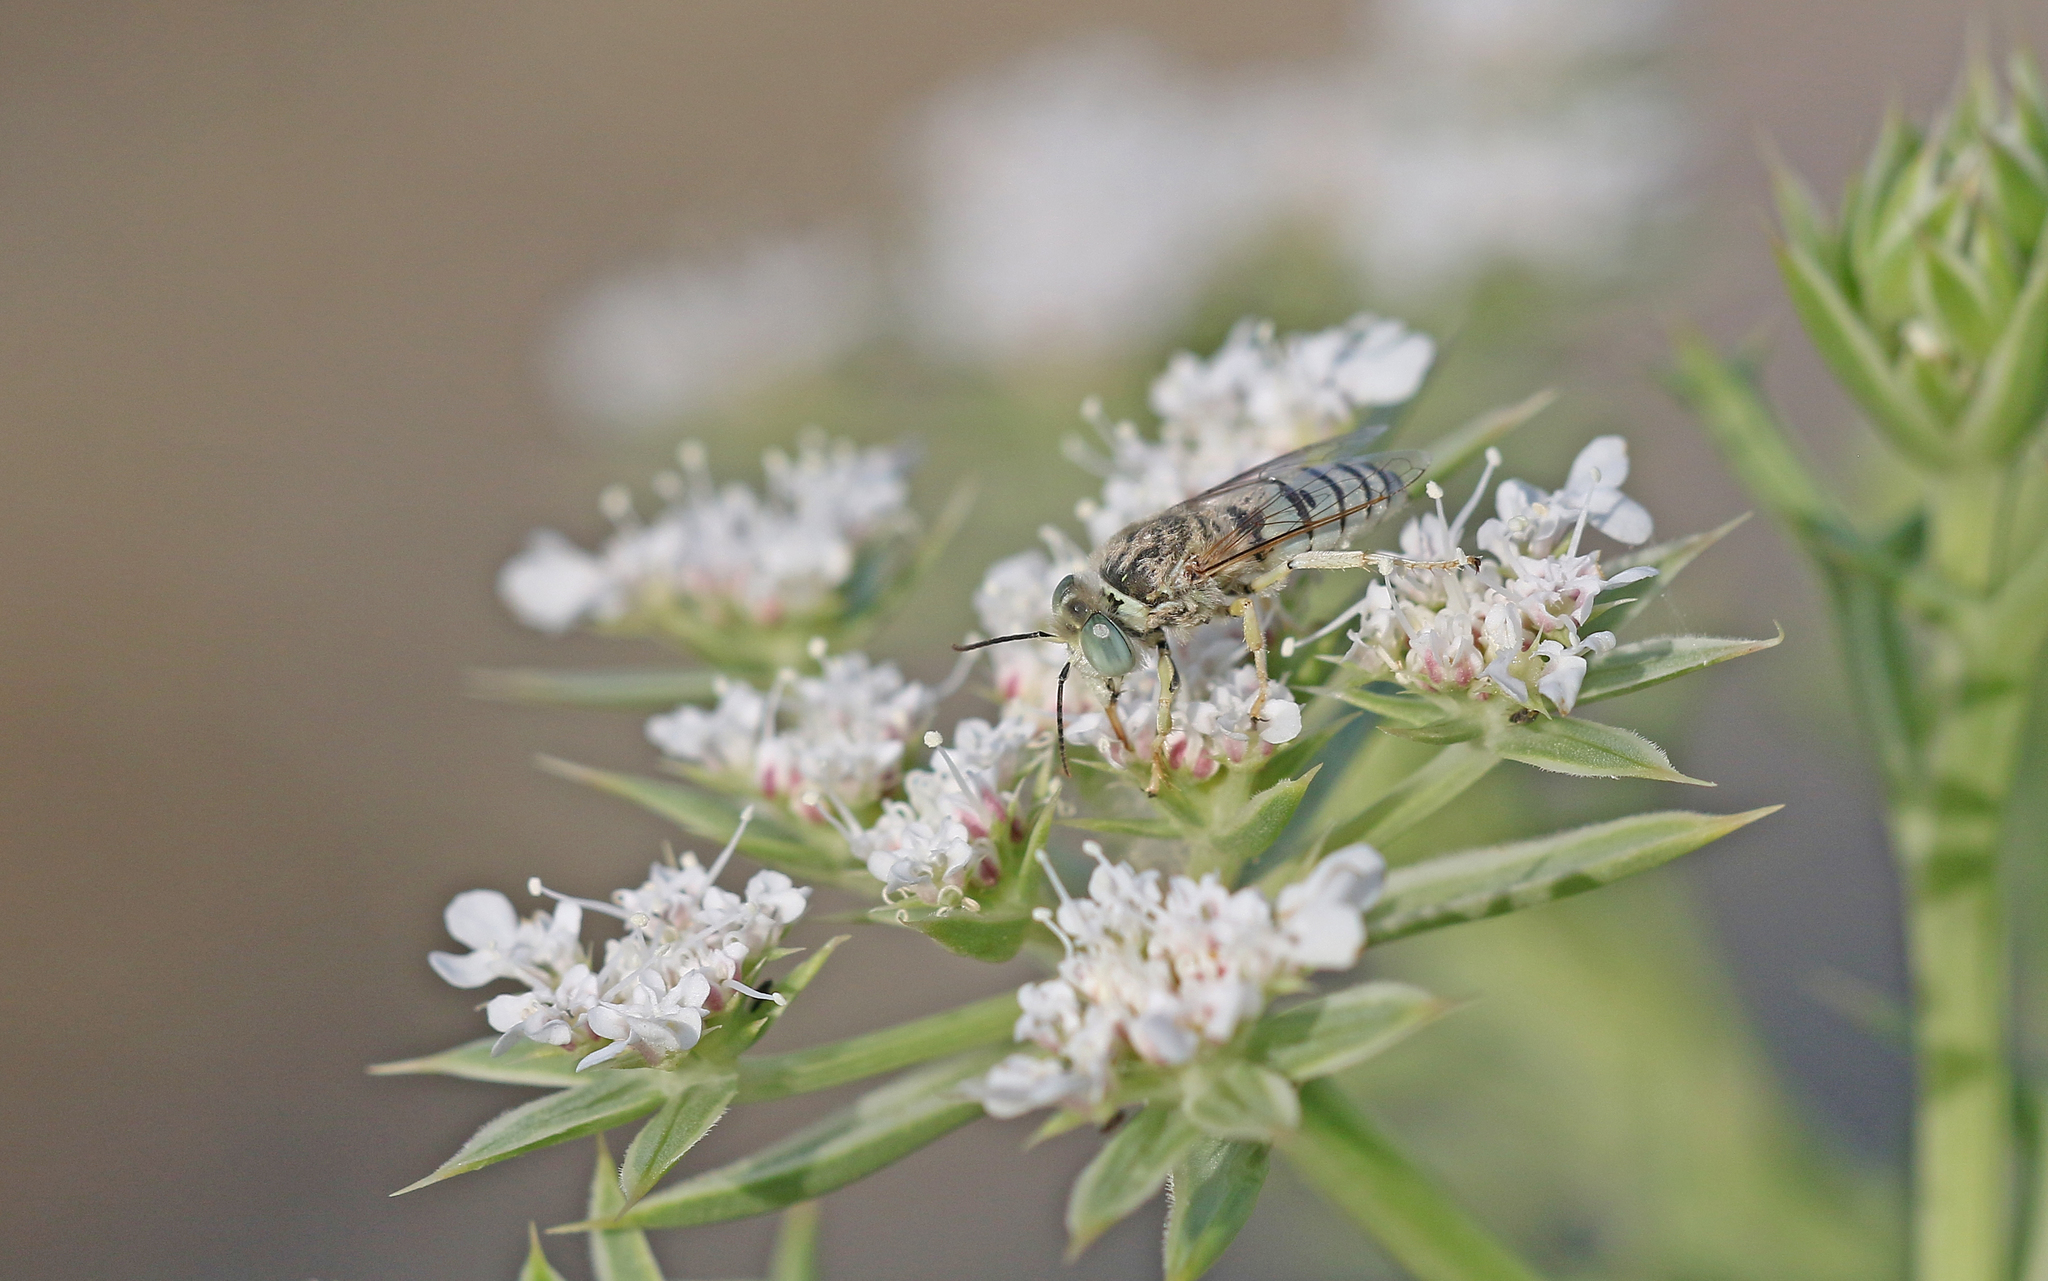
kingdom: Animalia
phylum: Arthropoda
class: Insecta
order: Hymenoptera
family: Crabronidae
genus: Bembix
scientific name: Bembix olivacea
